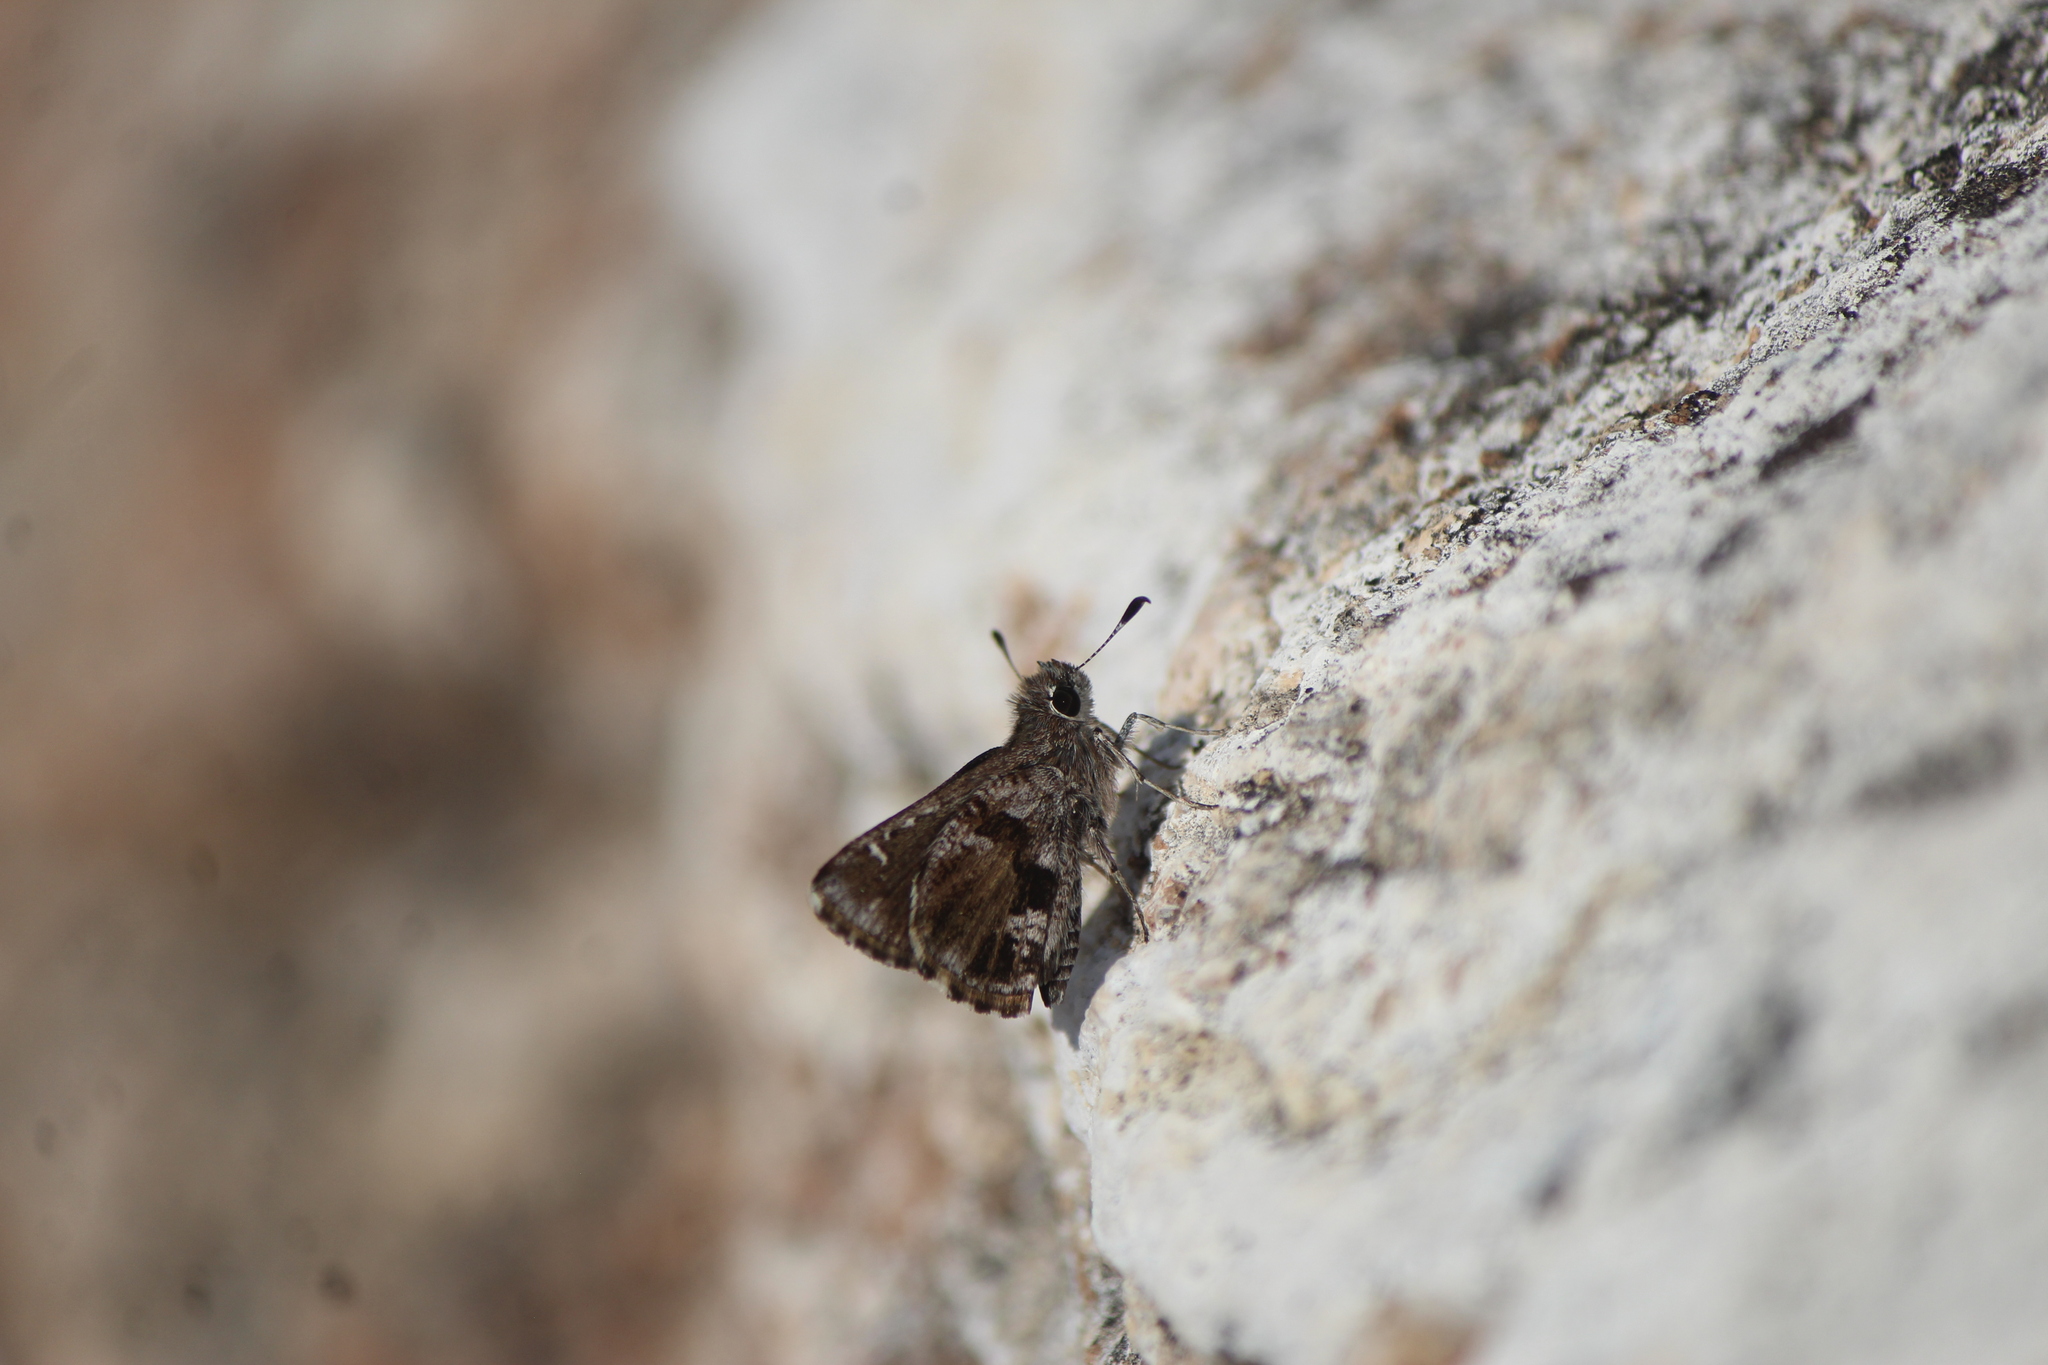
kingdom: Animalia
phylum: Arthropoda
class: Insecta
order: Lepidoptera
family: Hesperiidae
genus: Mastor
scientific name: Mastor nysa
